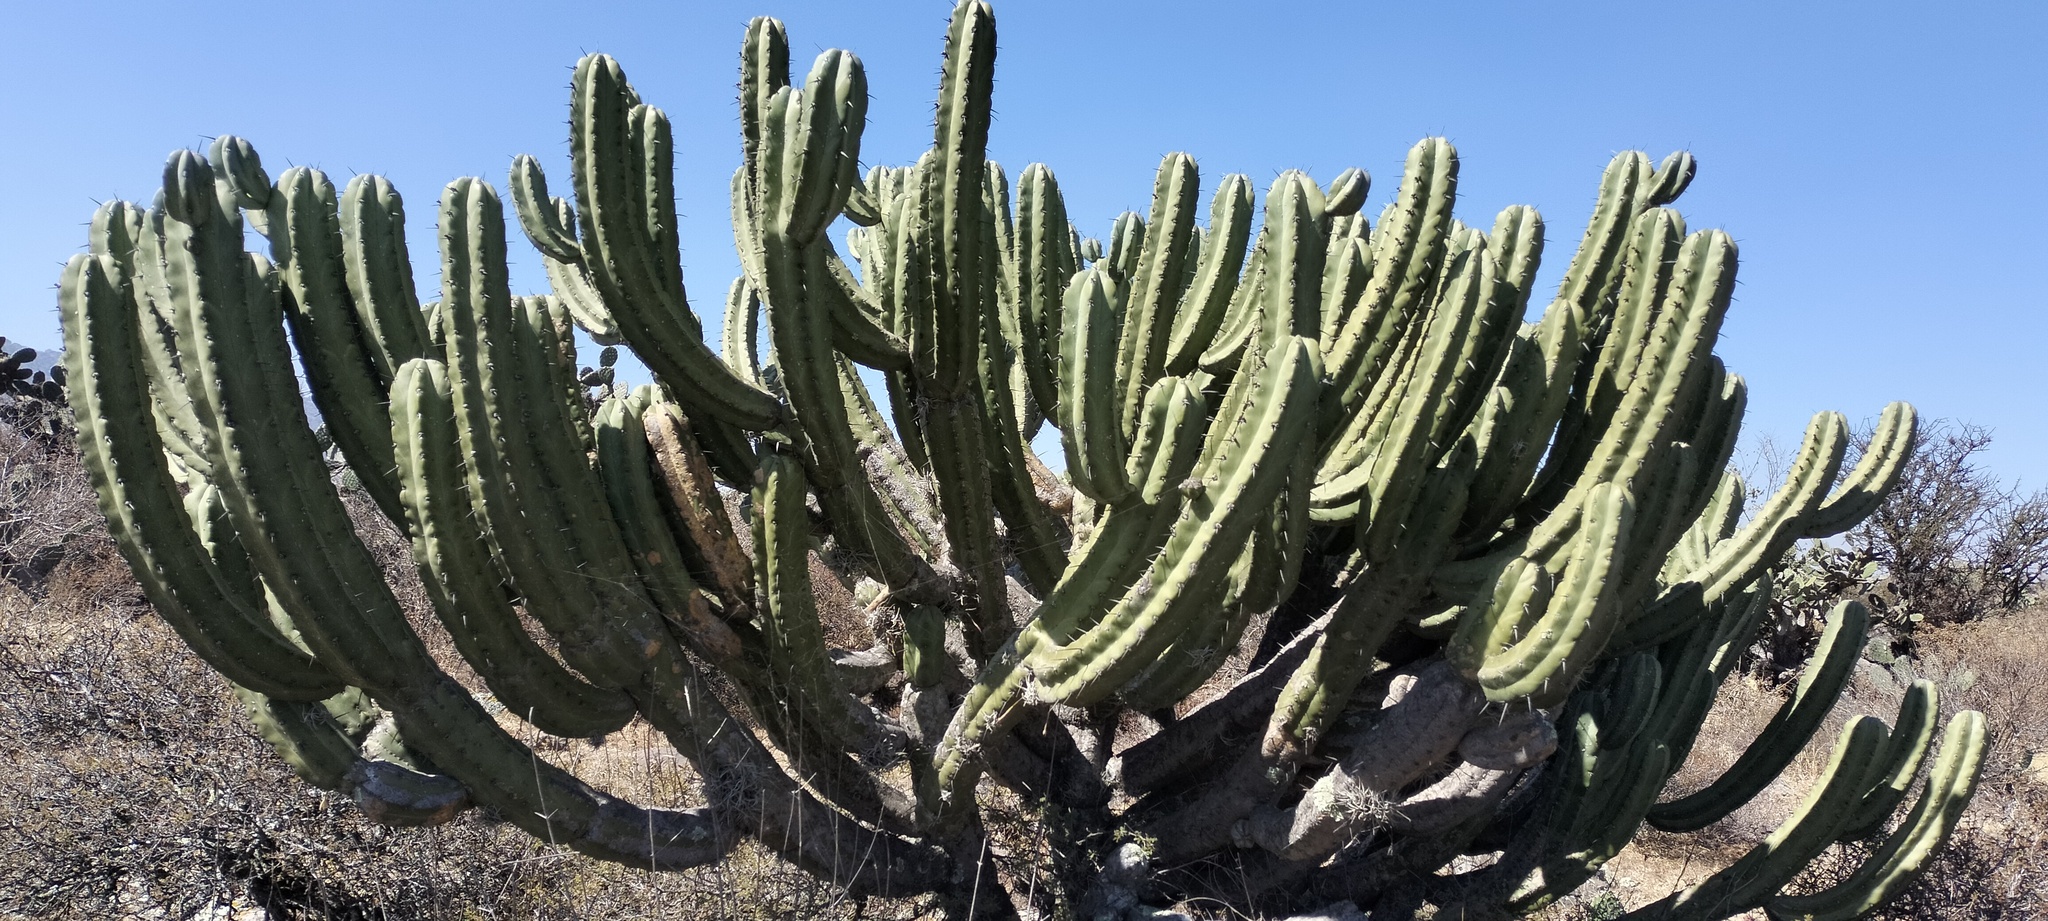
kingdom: Plantae
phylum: Tracheophyta
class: Magnoliopsida
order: Caryophyllales
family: Cactaceae
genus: Myrtillocactus
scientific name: Myrtillocactus geometrizans
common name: Bilberry cactus
